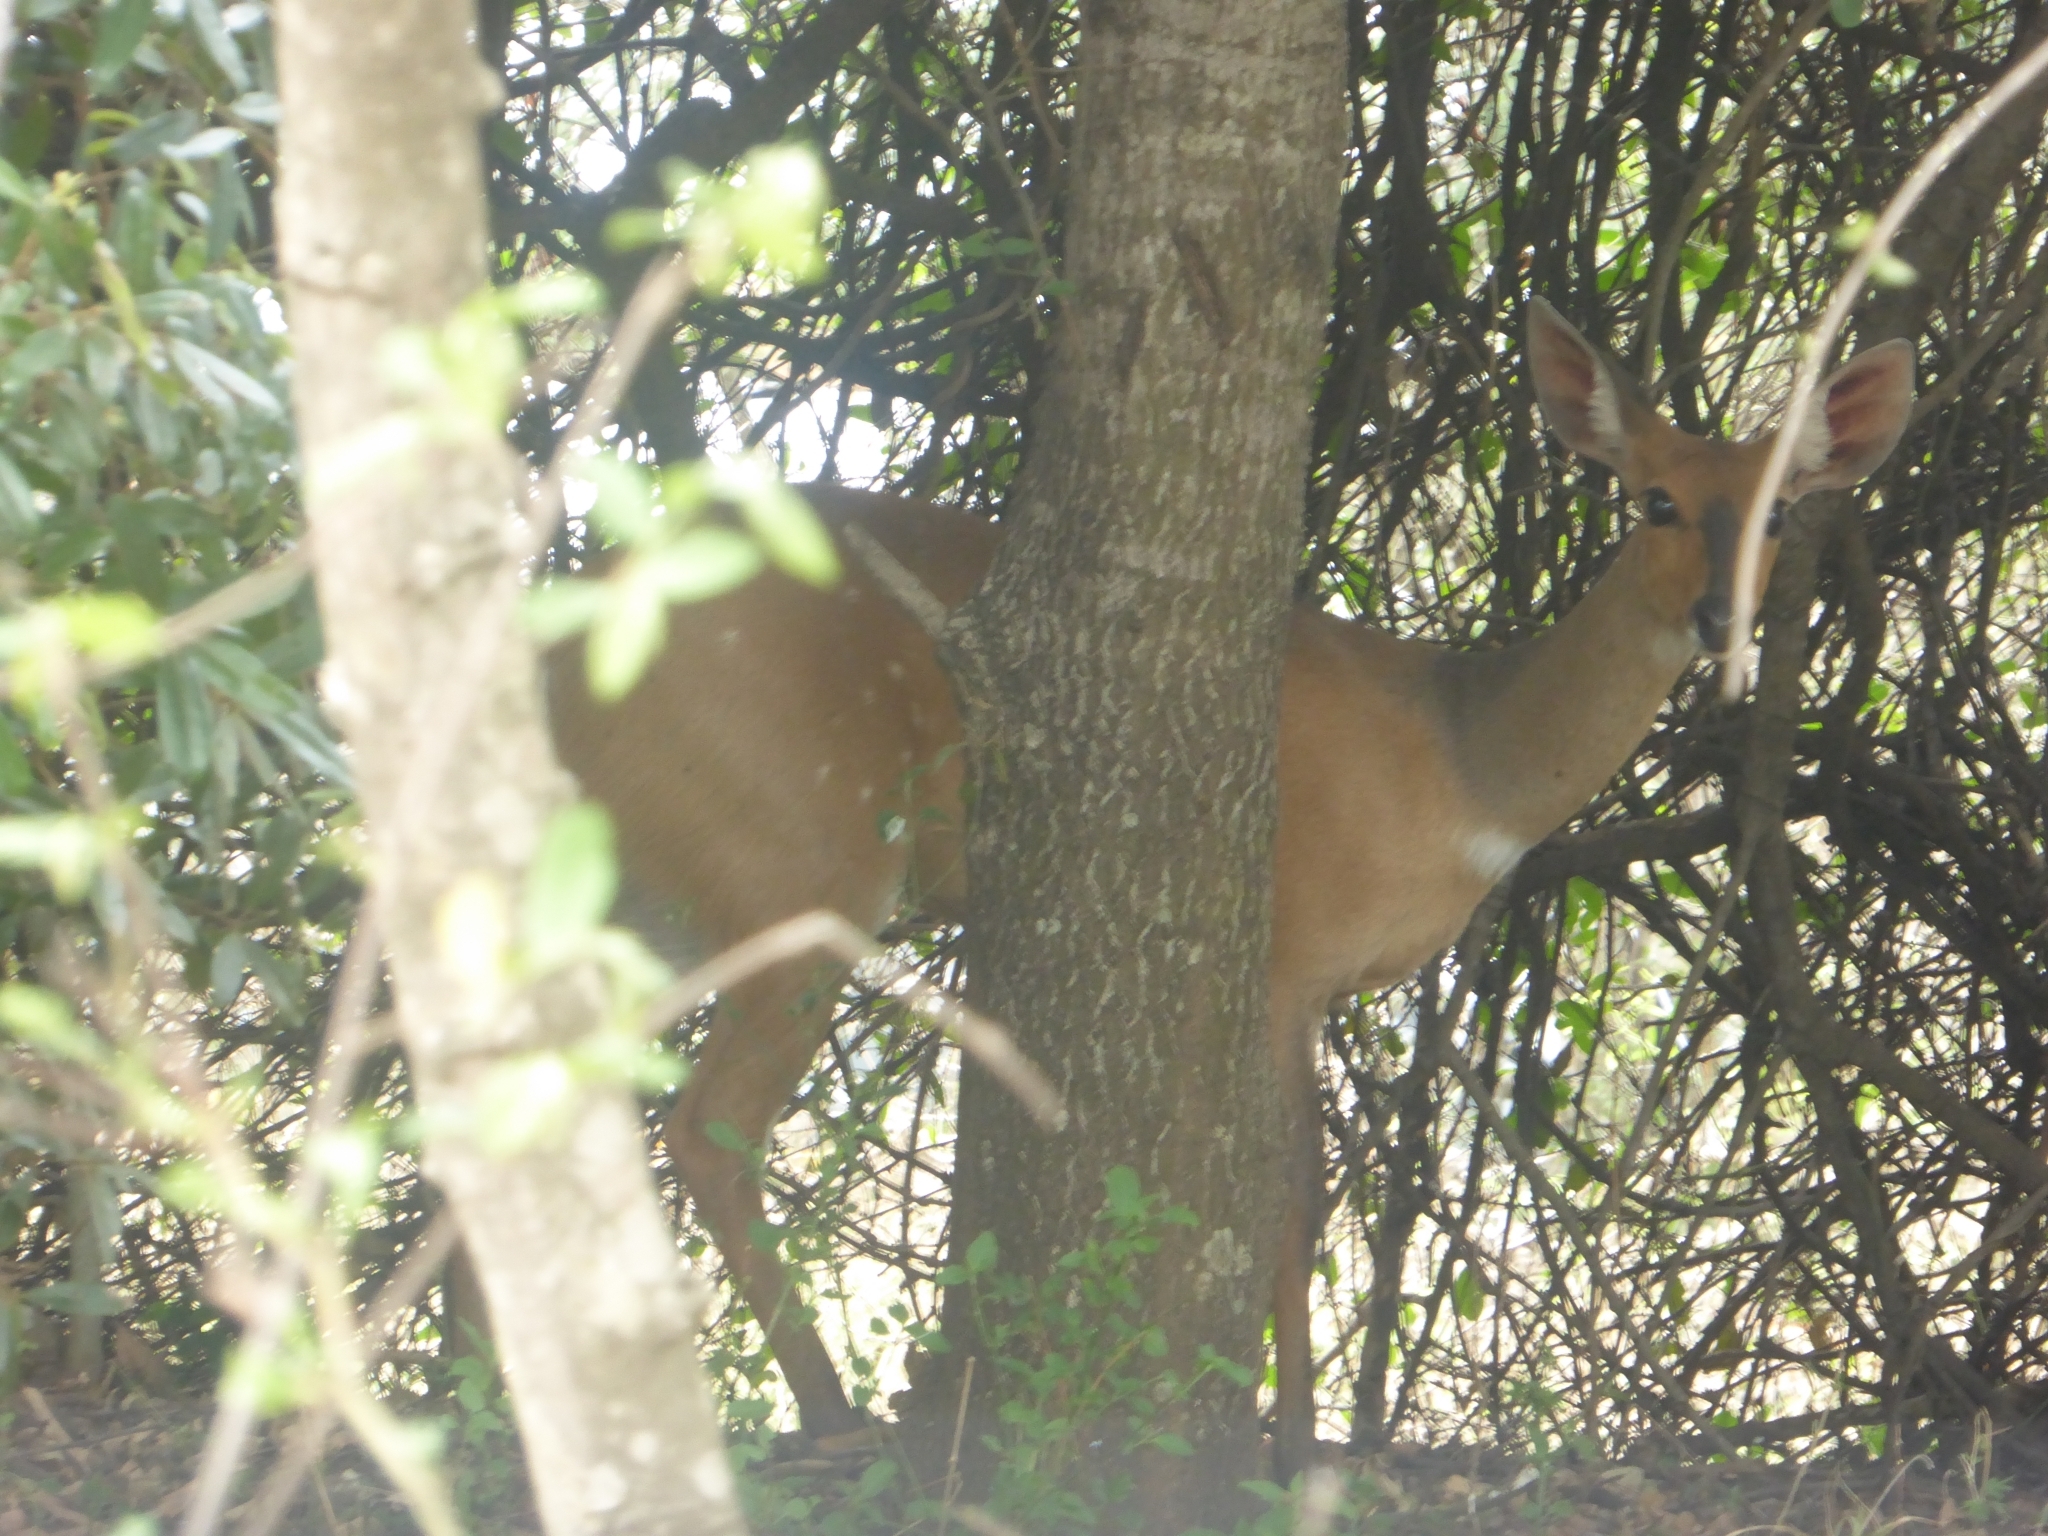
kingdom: Animalia
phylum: Chordata
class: Mammalia
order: Artiodactyla
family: Bovidae
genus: Tragelaphus
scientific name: Tragelaphus scriptus
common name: Bushbuck
